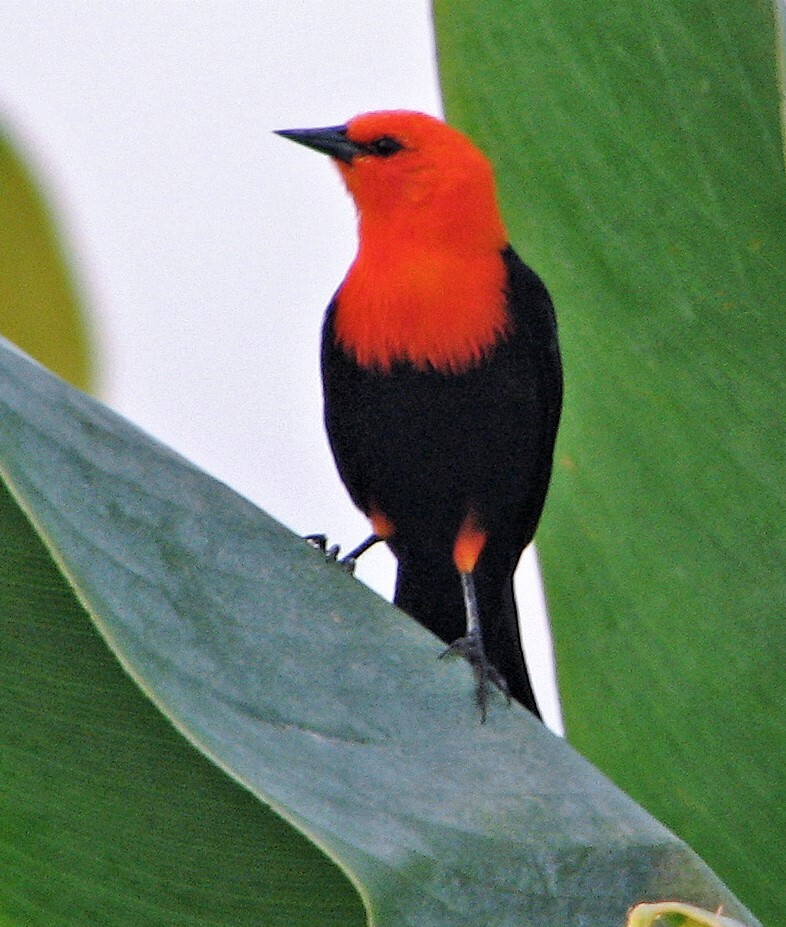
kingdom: Animalia
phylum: Chordata
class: Aves
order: Passeriformes
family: Icteridae
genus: Amblyramphus
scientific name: Amblyramphus holosericeus
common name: Scarlet-headed blackbird
